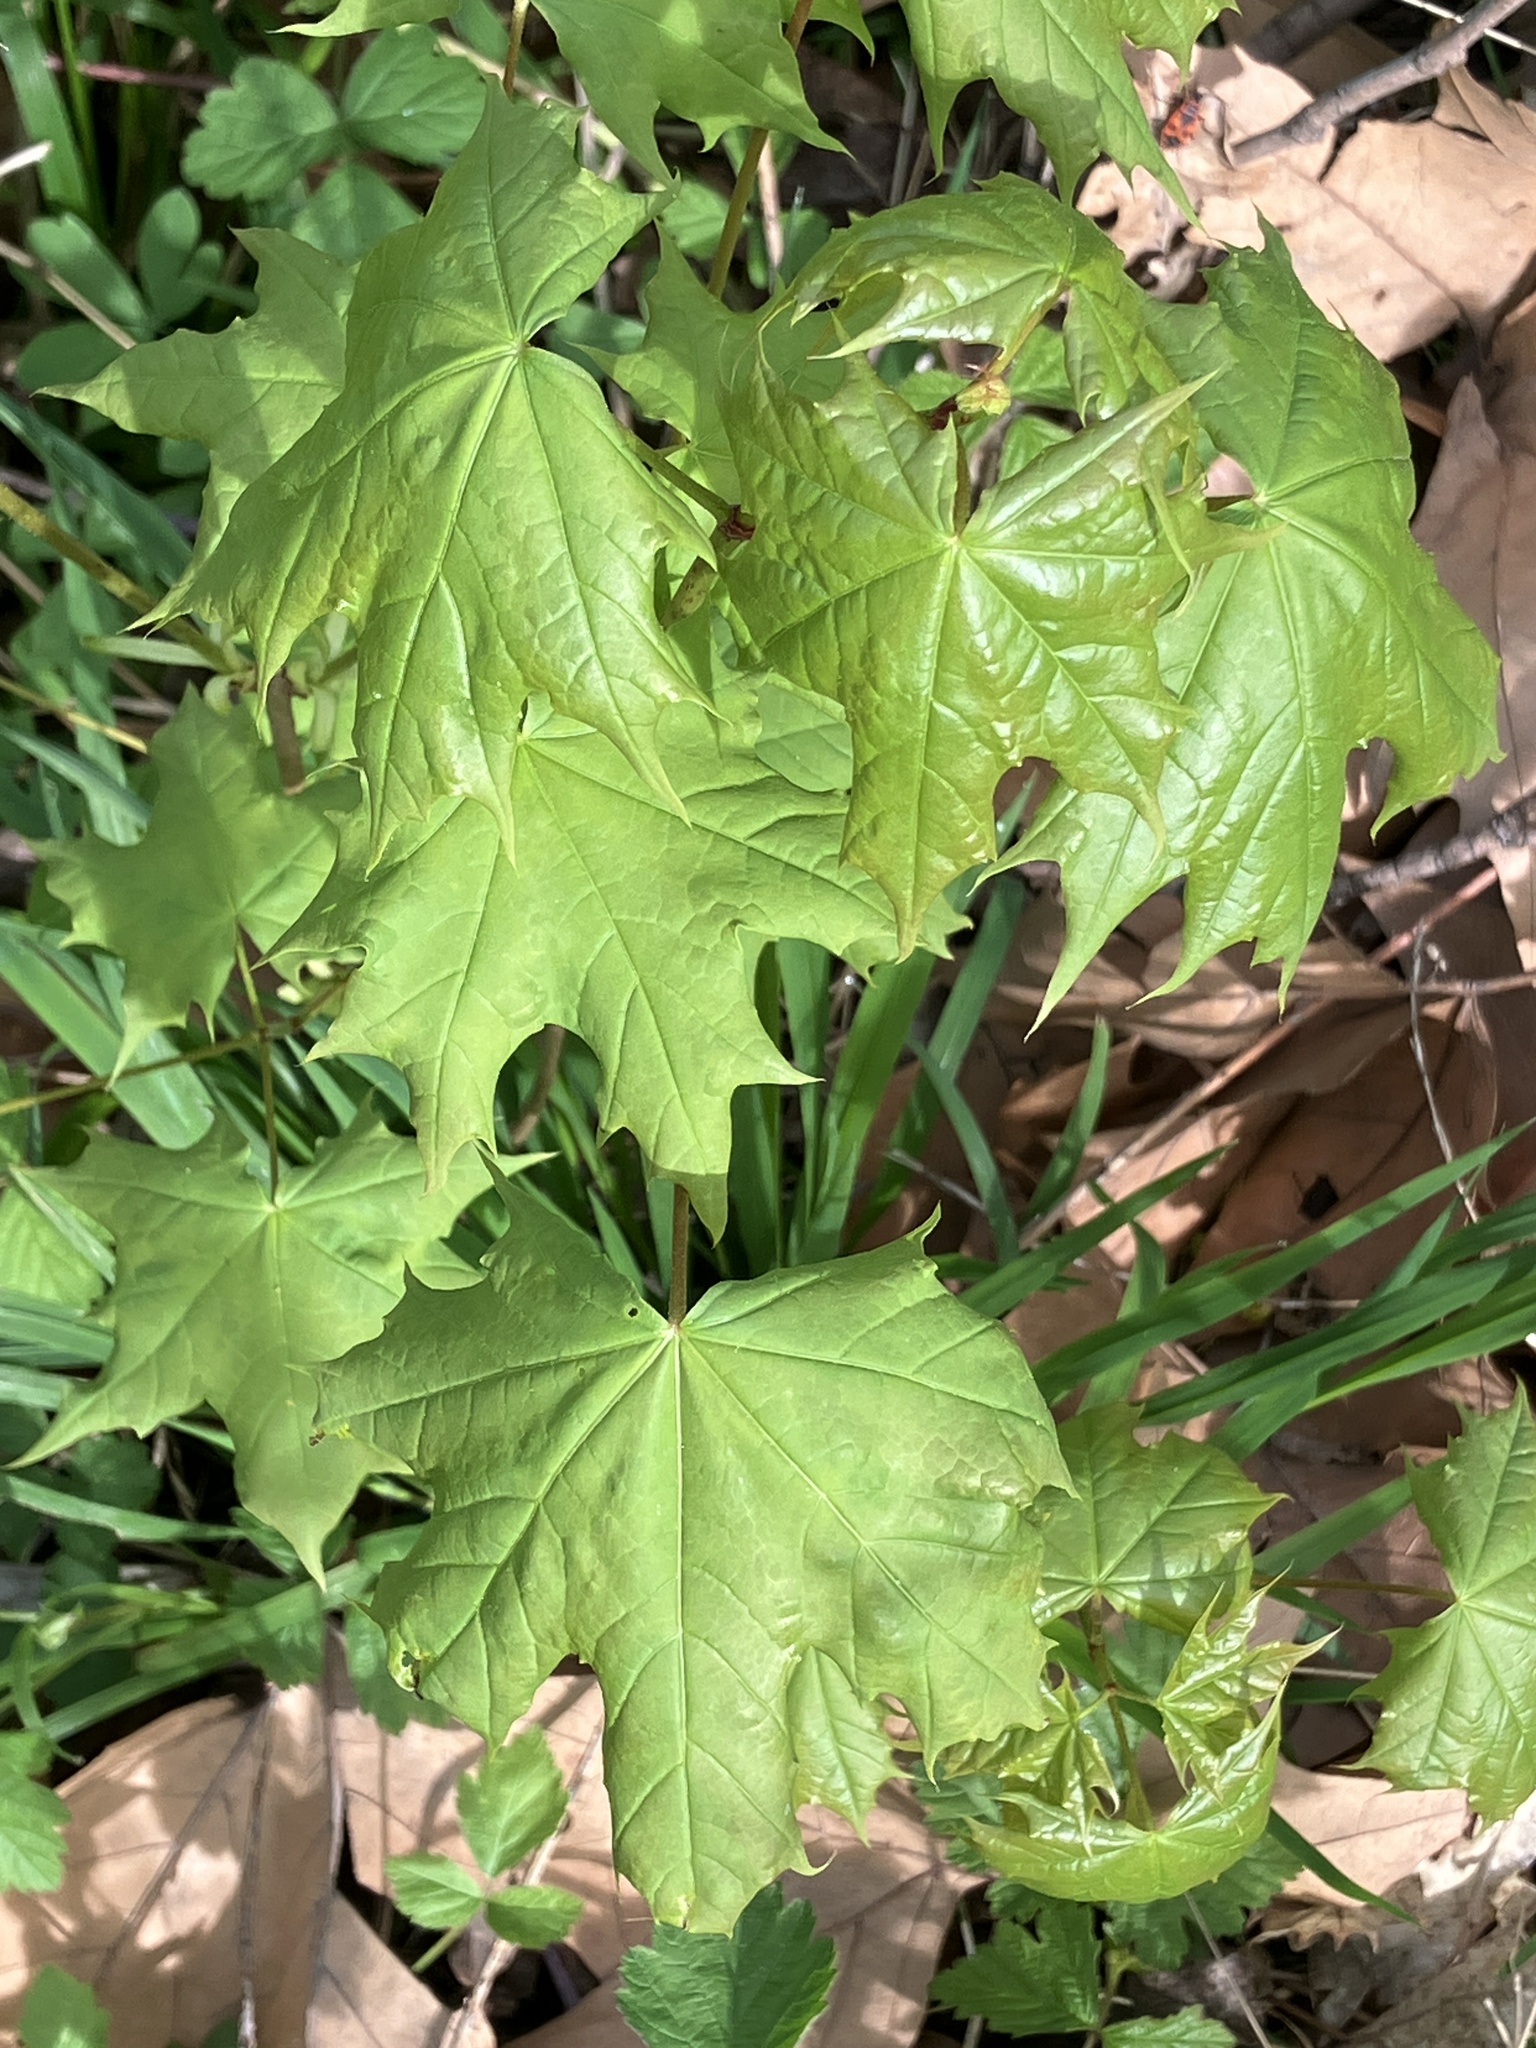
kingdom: Plantae
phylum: Tracheophyta
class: Magnoliopsida
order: Sapindales
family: Sapindaceae
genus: Acer
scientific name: Acer platanoides
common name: Norway maple
